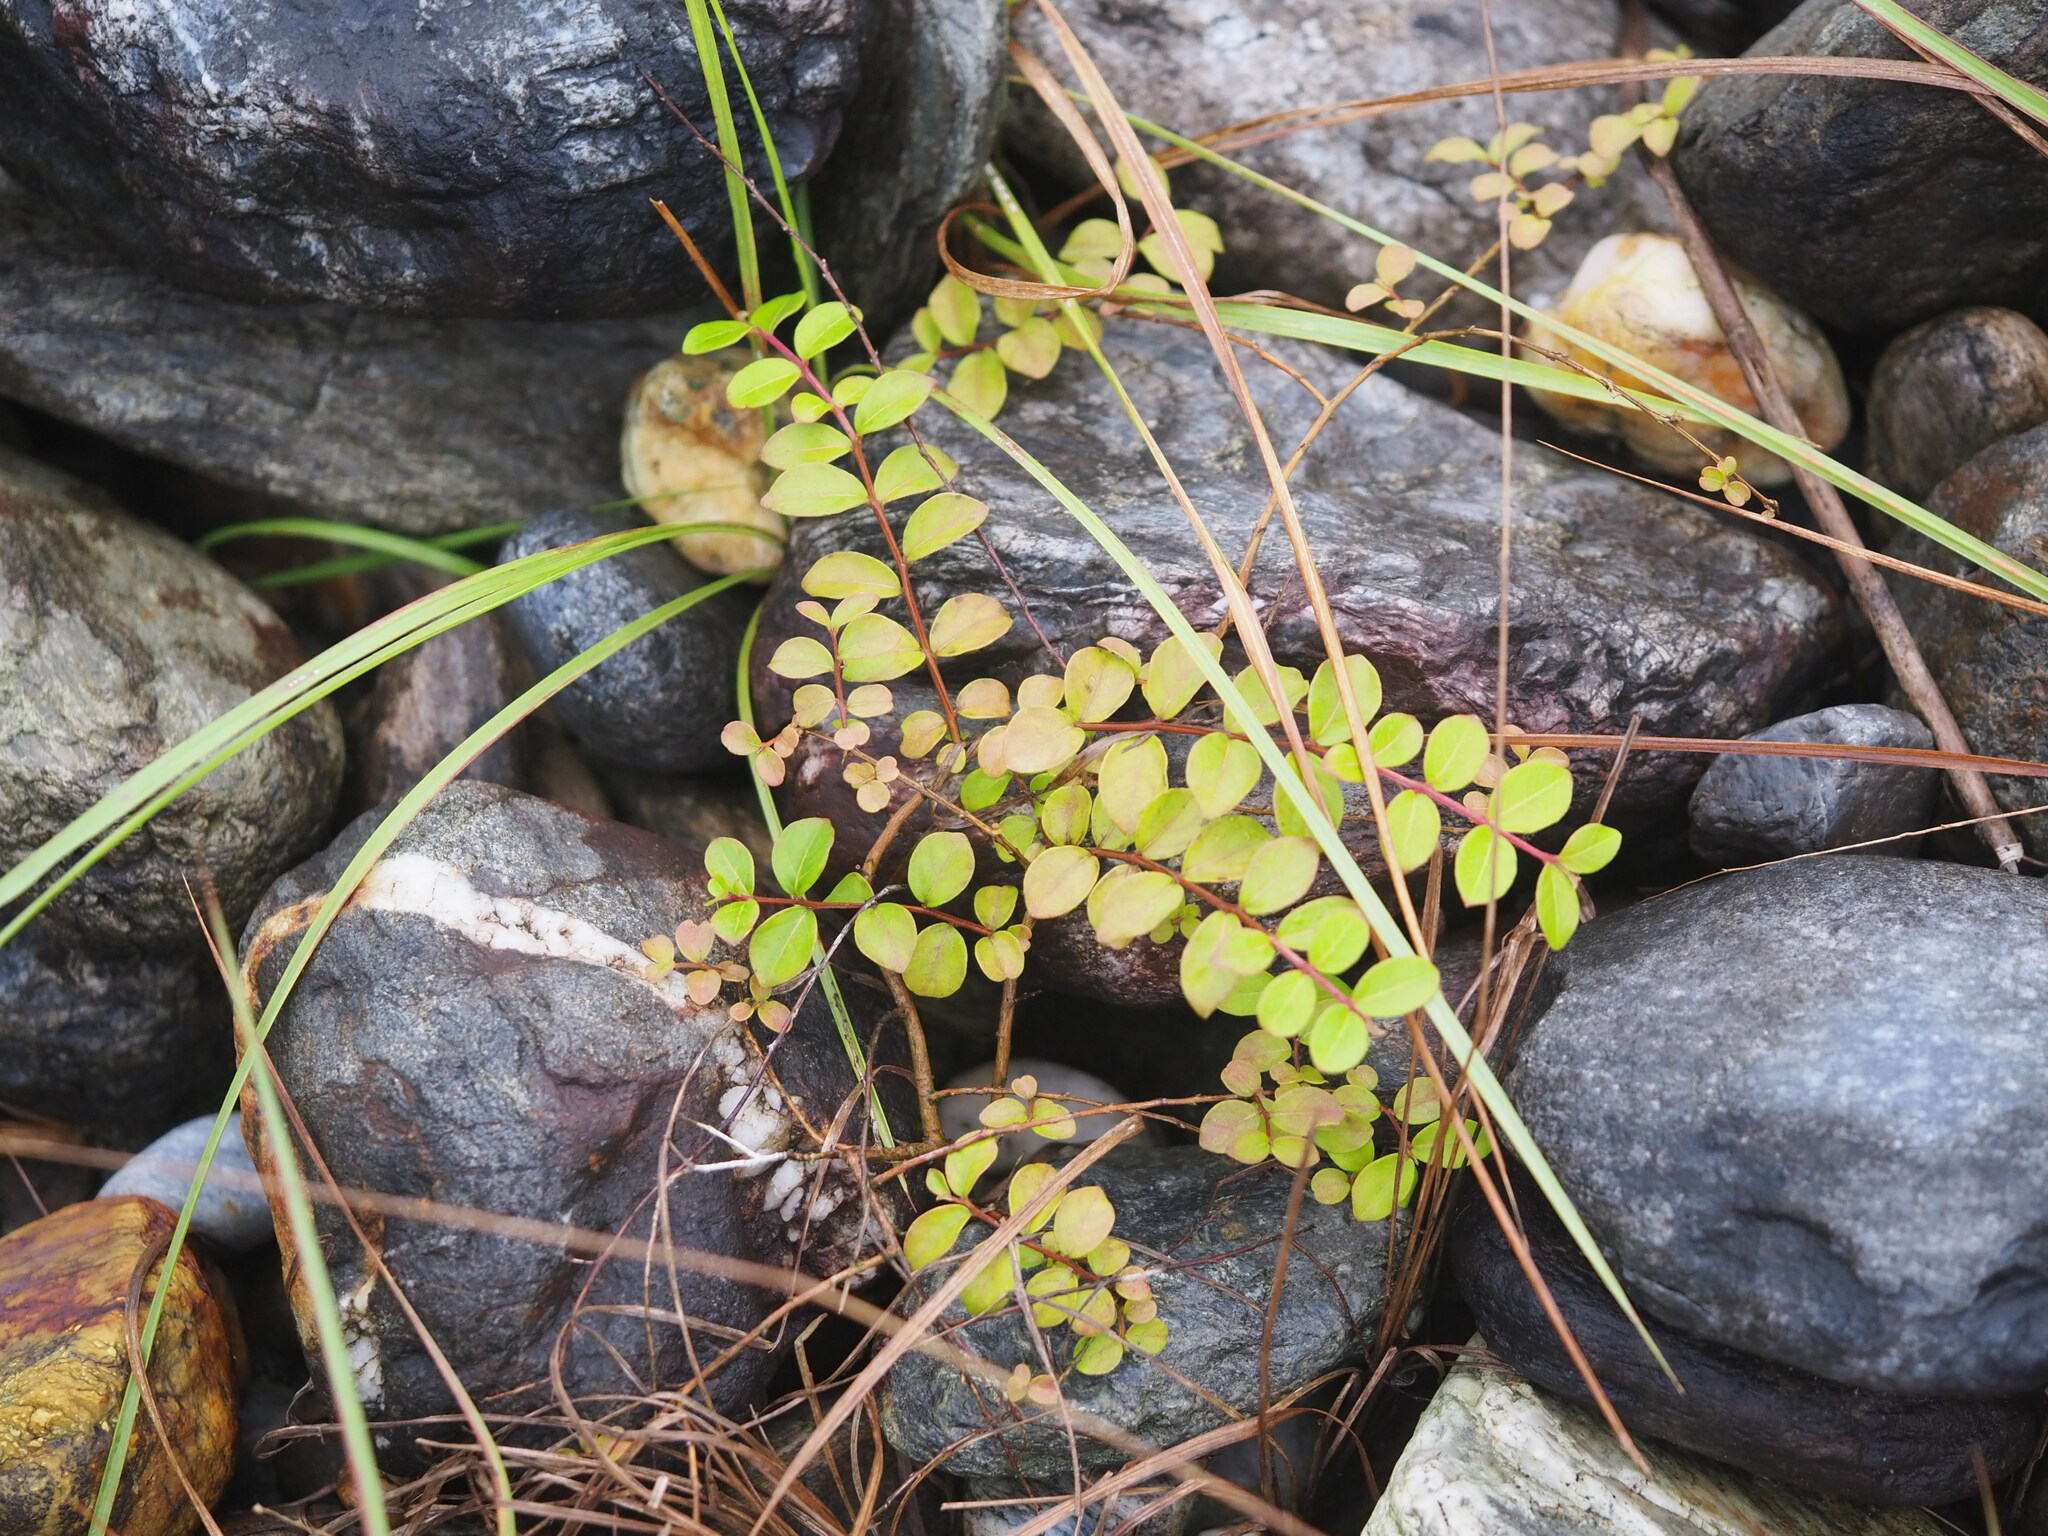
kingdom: Plantae
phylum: Tracheophyta
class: Magnoliopsida
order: Myrtales
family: Lythraceae
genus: Lagerstroemia
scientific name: Lagerstroemia subcostata
